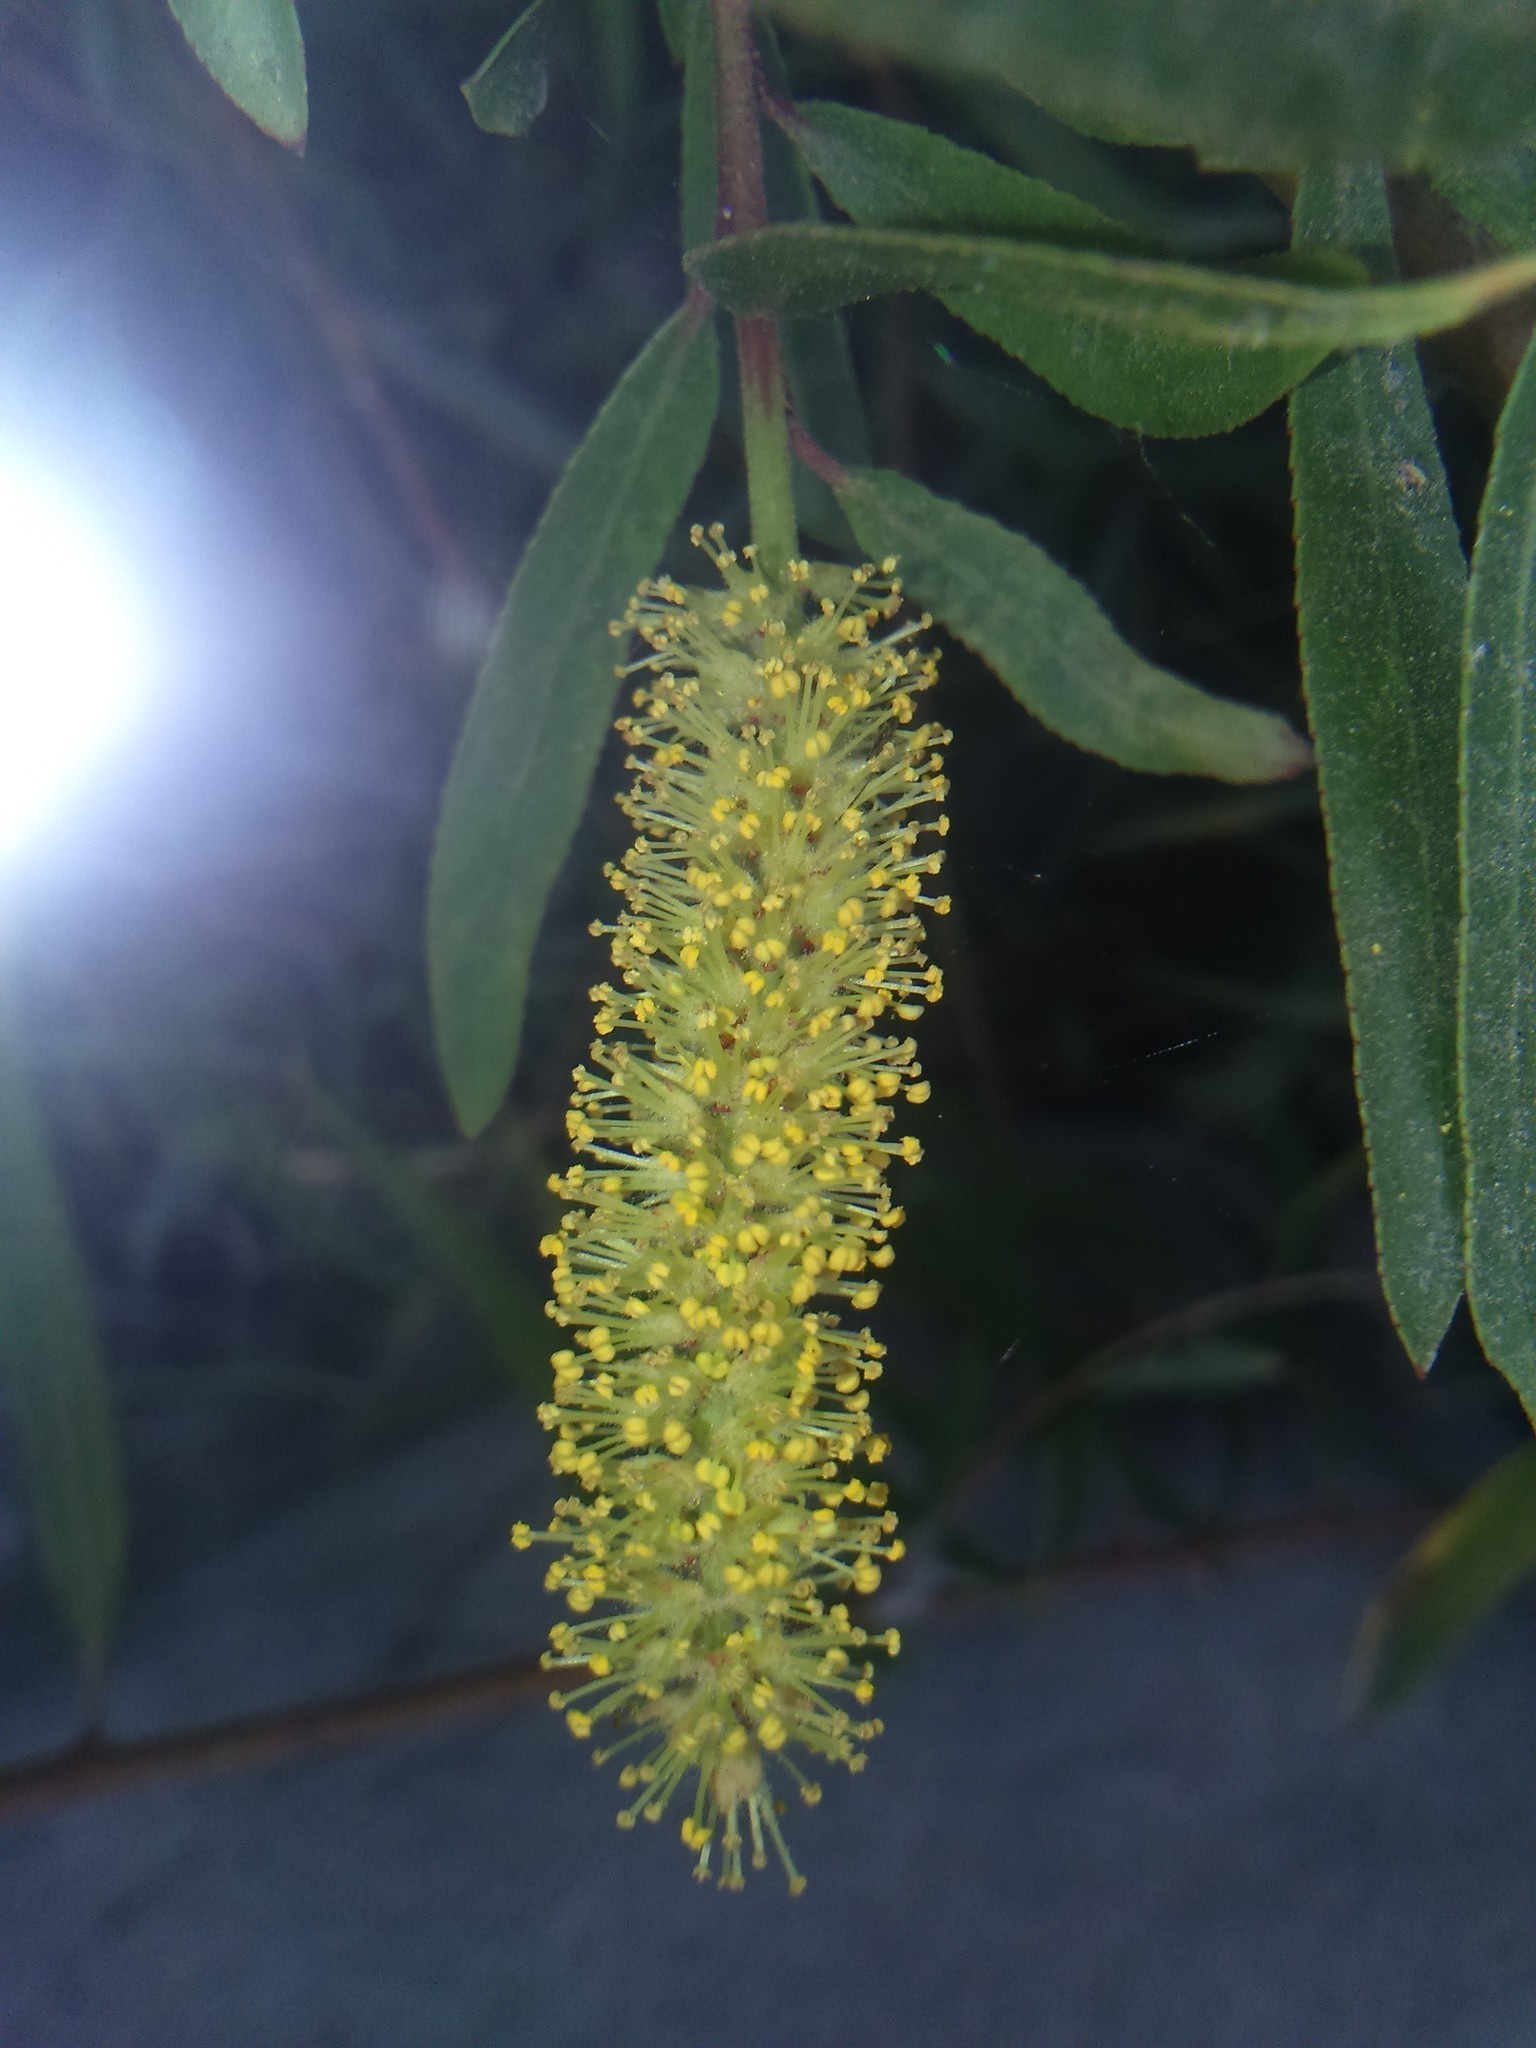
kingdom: Plantae
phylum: Tracheophyta
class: Magnoliopsida
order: Malpighiales
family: Salicaceae
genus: Salix
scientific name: Salix humboldtiana
